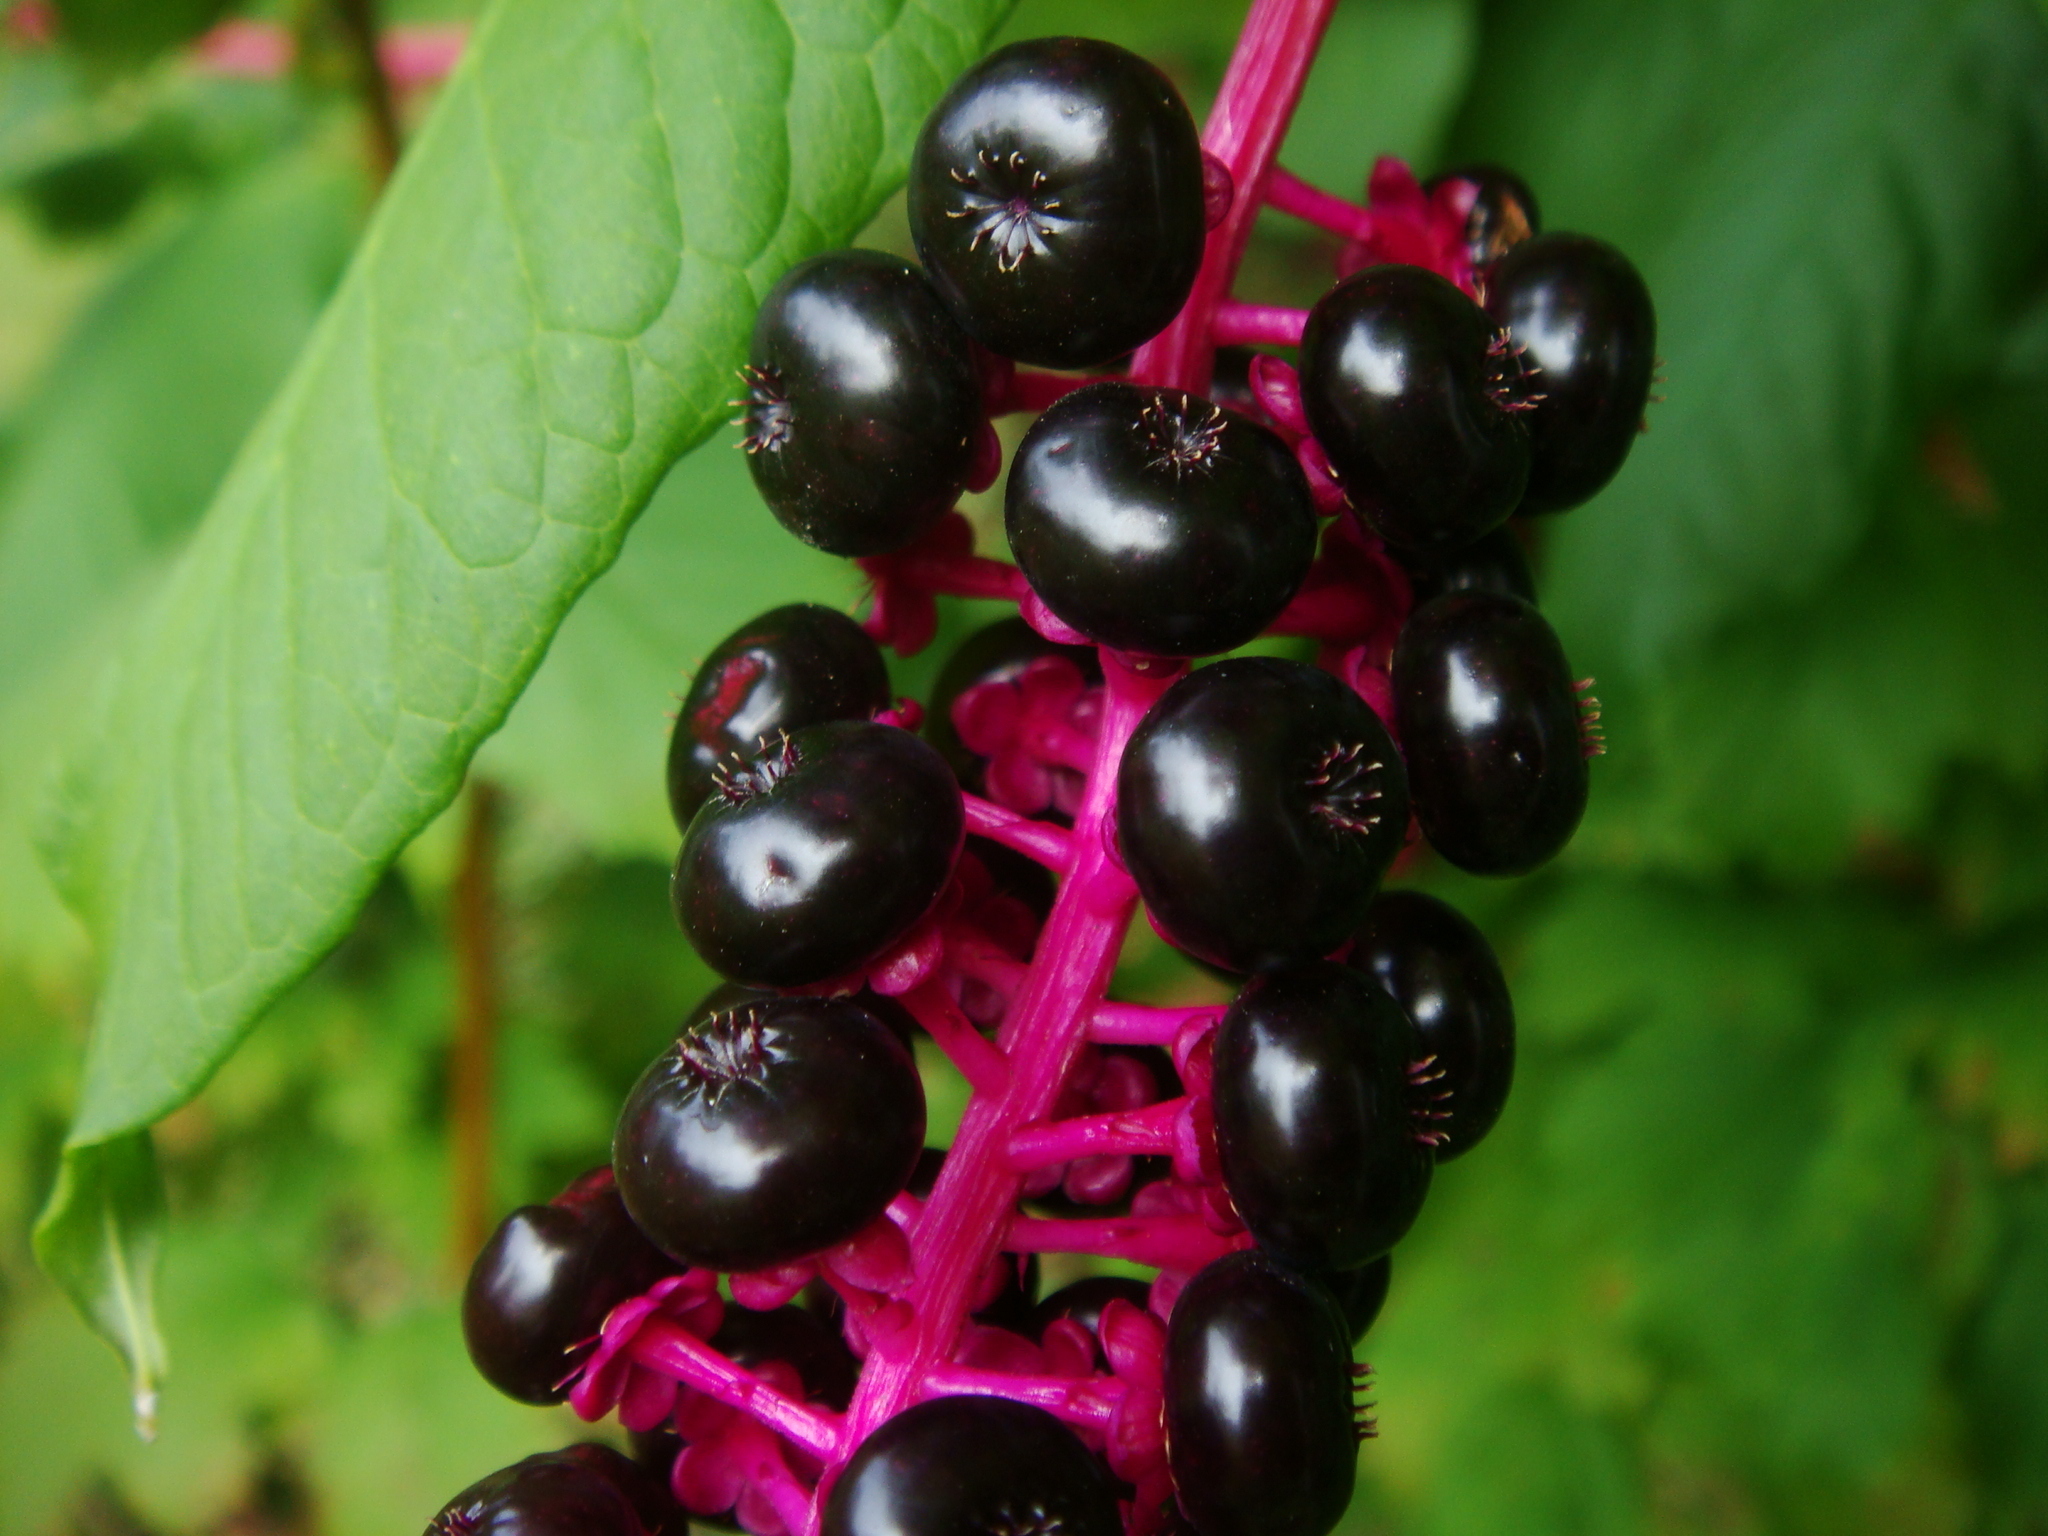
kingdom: Plantae
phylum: Tracheophyta
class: Magnoliopsida
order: Caryophyllales
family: Phytolaccaceae
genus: Phytolacca
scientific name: Phytolacca americana
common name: American pokeweed
